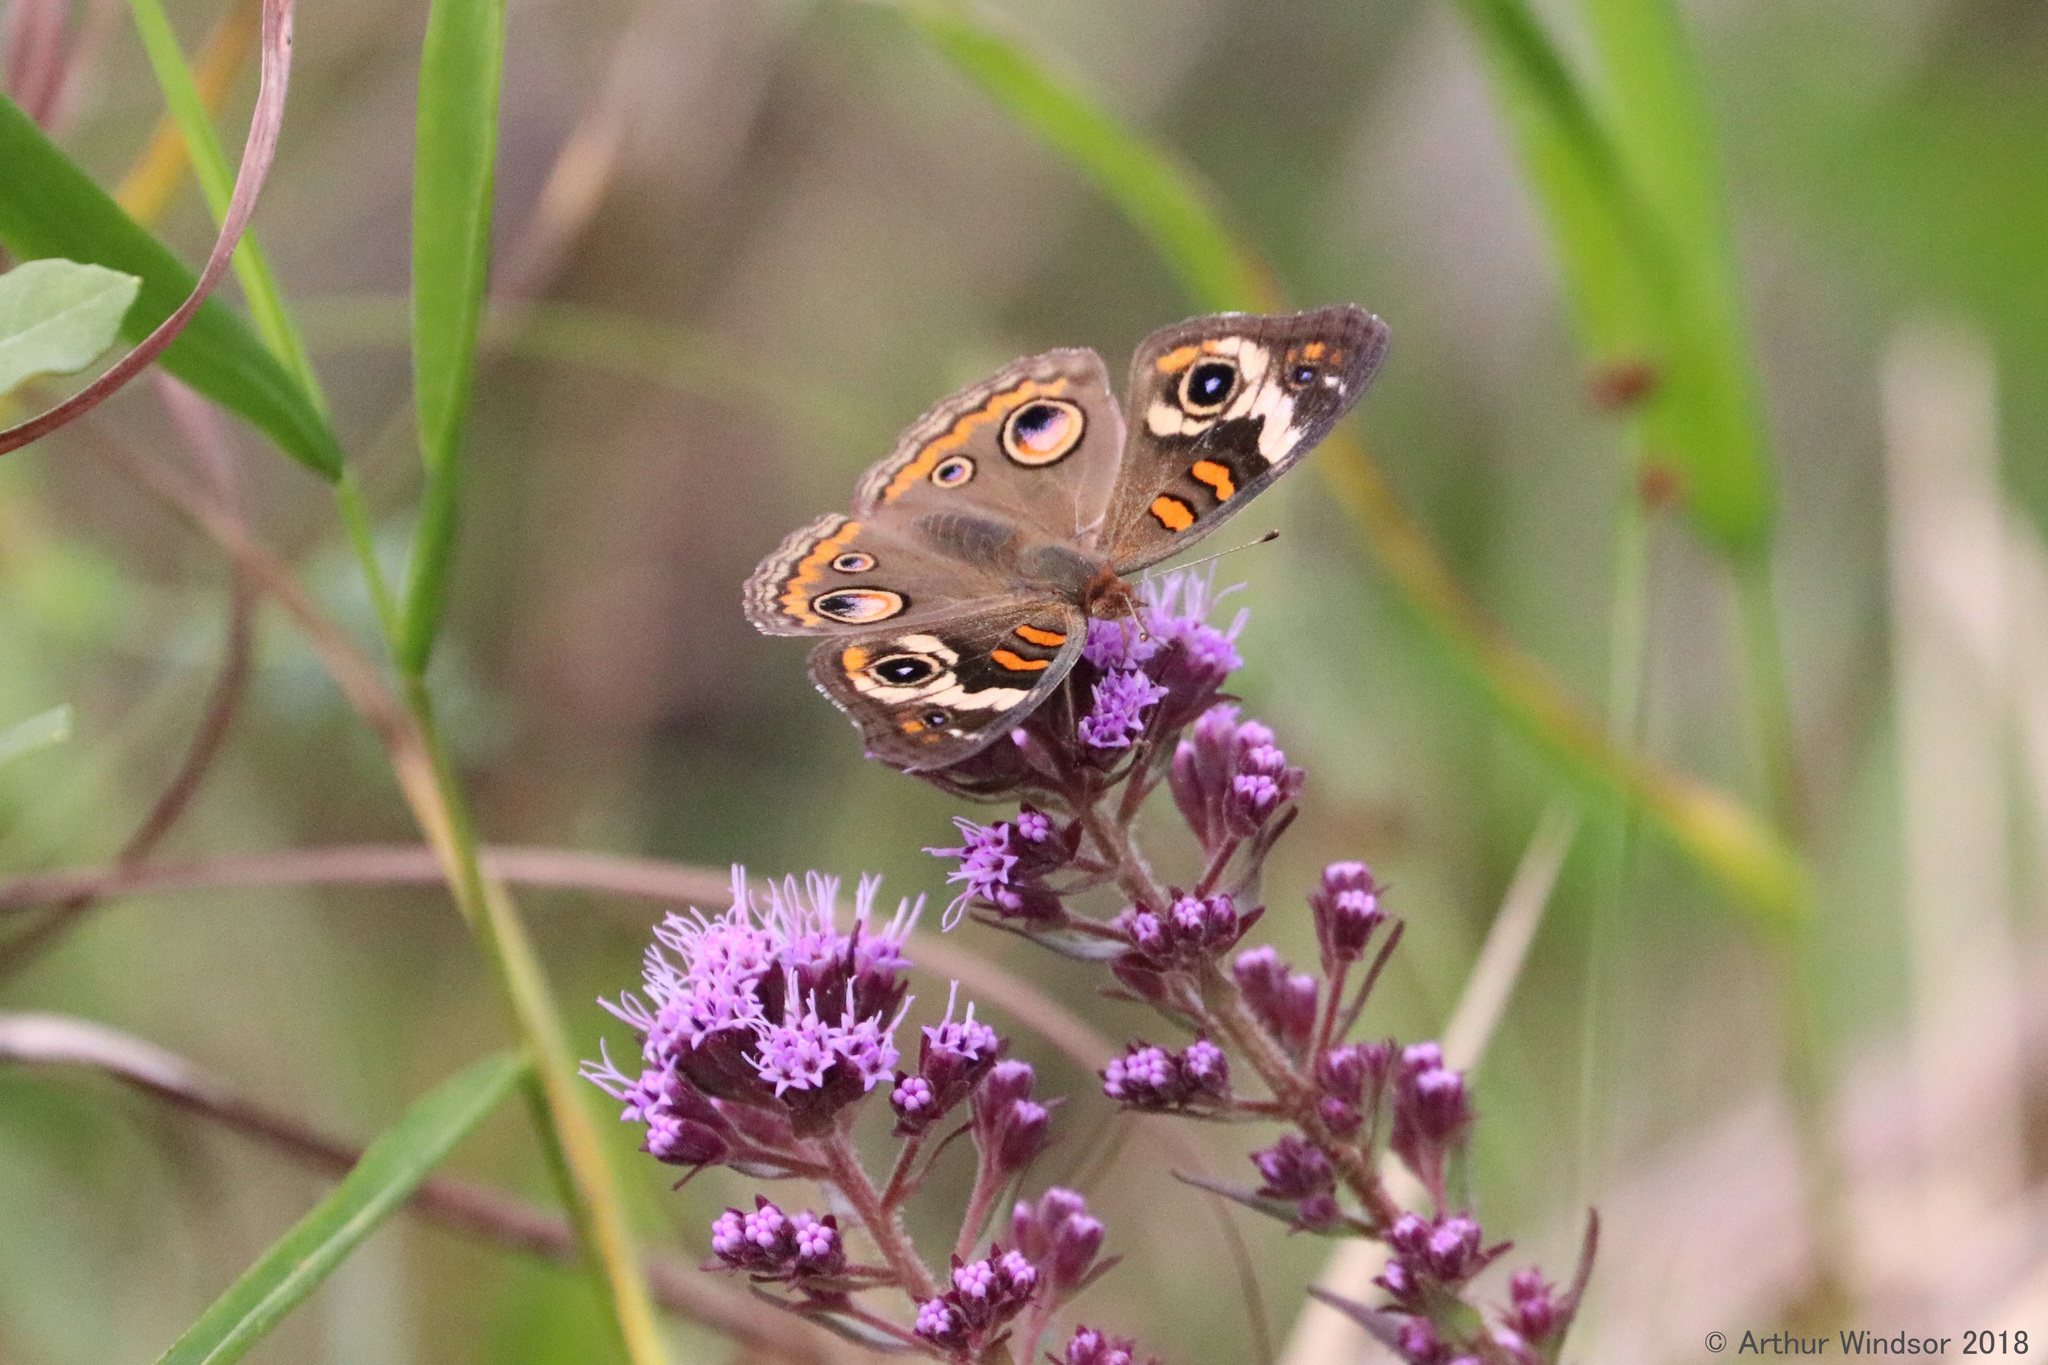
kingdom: Animalia
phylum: Arthropoda
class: Insecta
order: Lepidoptera
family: Nymphalidae
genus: Junonia
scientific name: Junonia coenia
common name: Common buckeye
